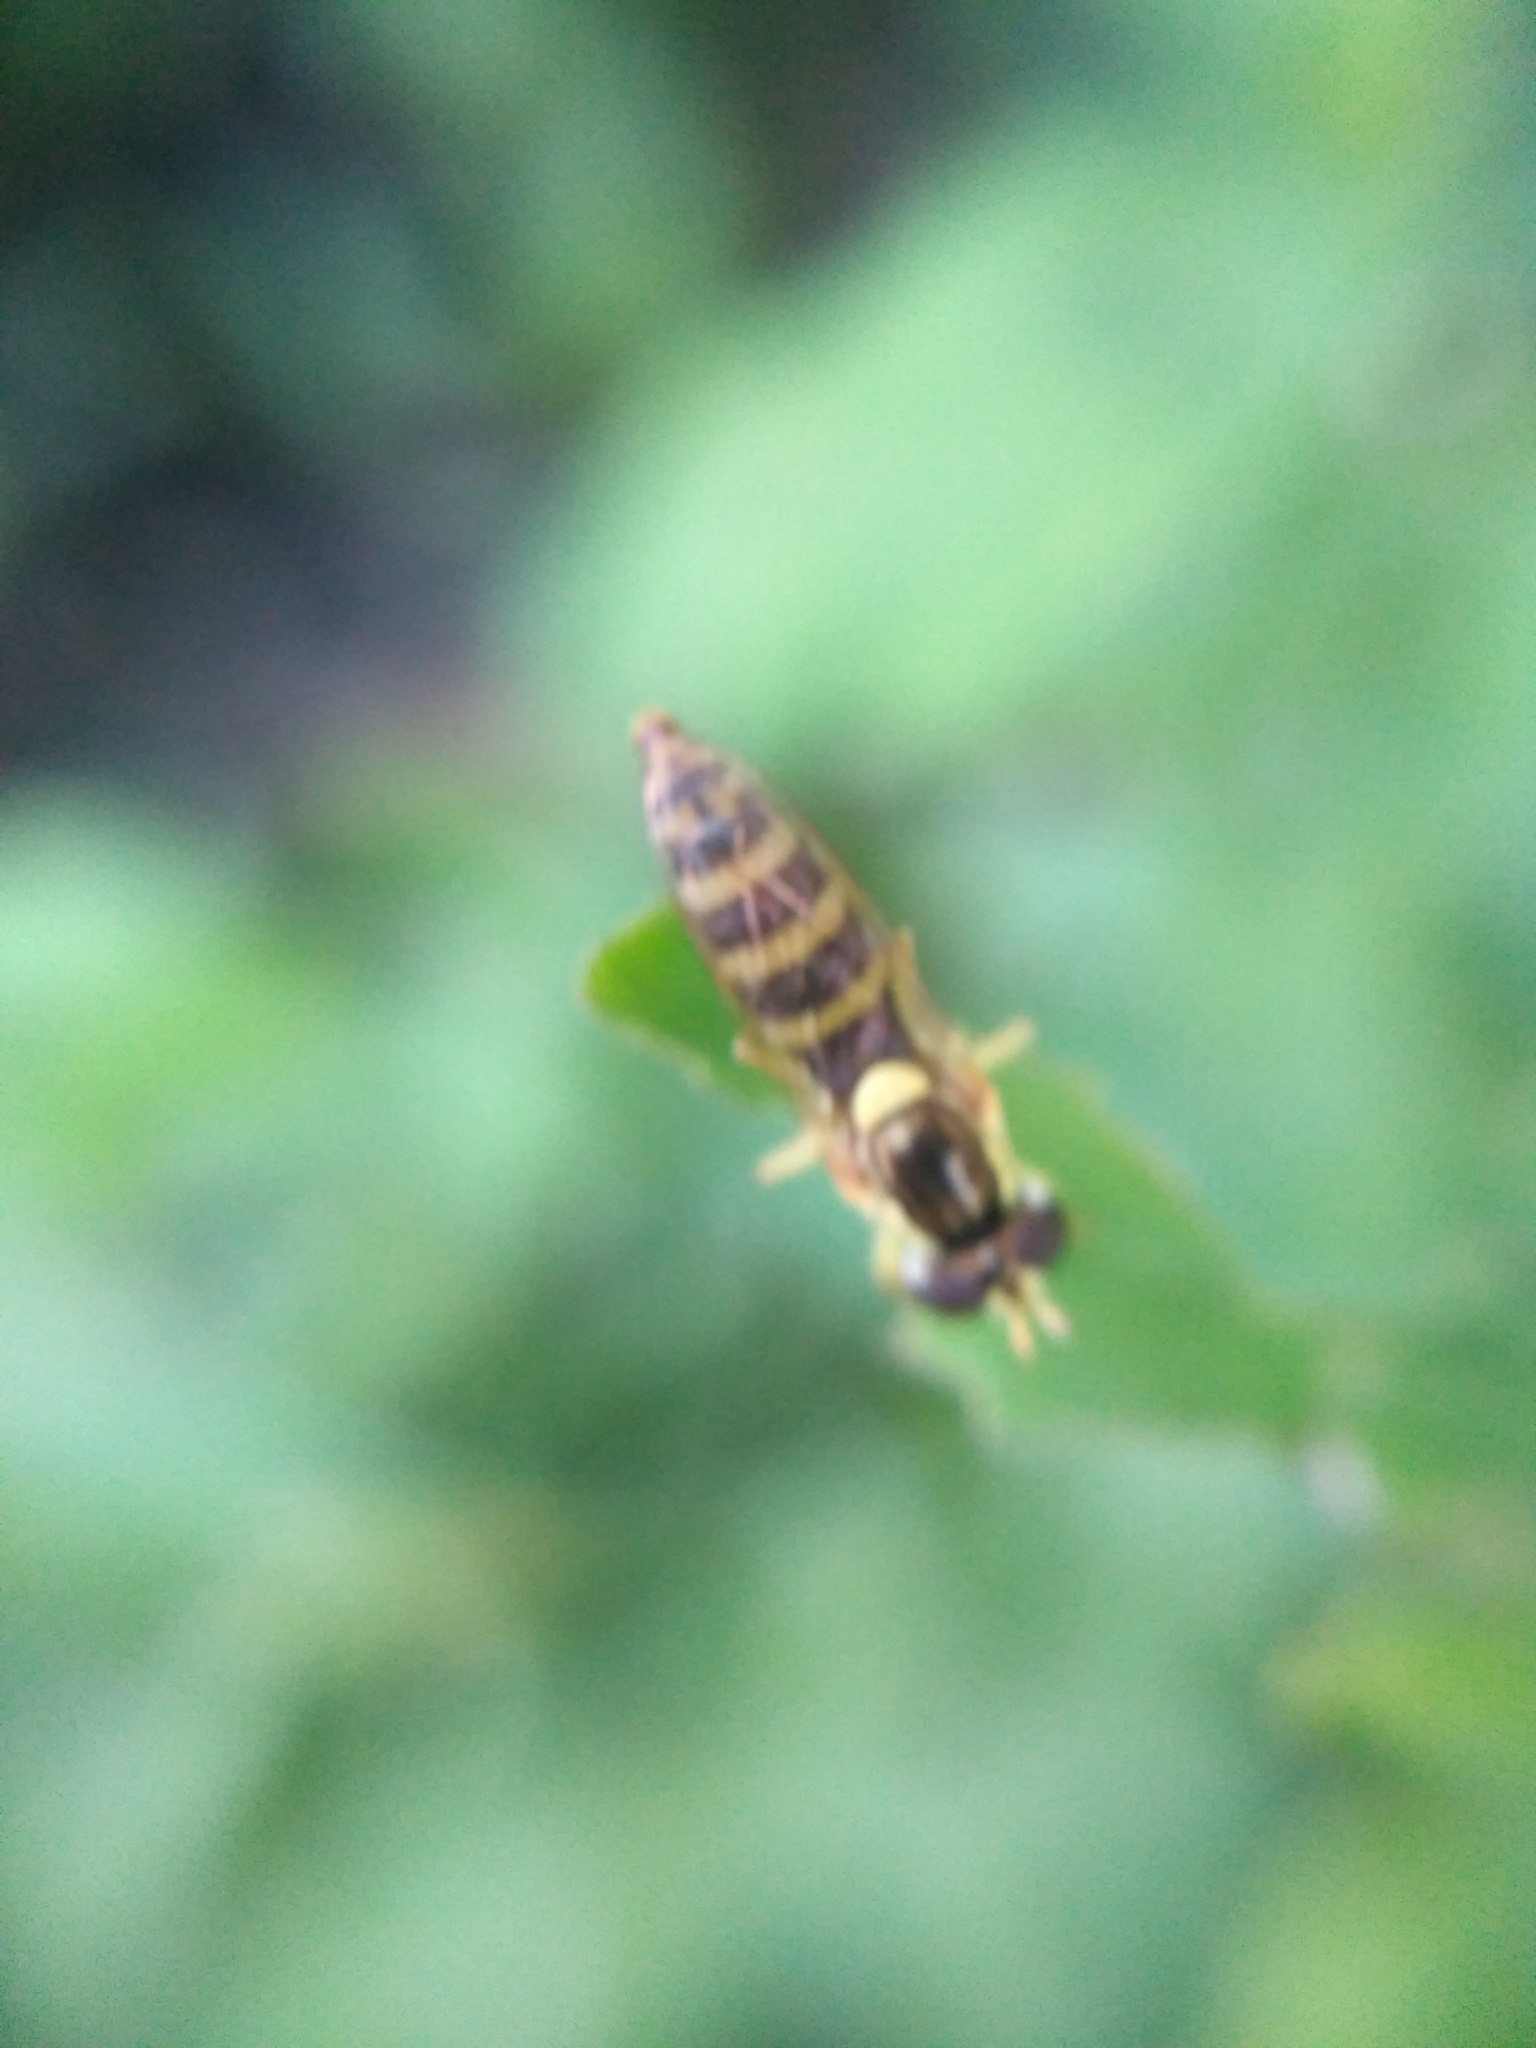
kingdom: Animalia
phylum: Arthropoda
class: Insecta
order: Diptera
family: Syrphidae
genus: Sphaerophoria
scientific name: Sphaerophoria
